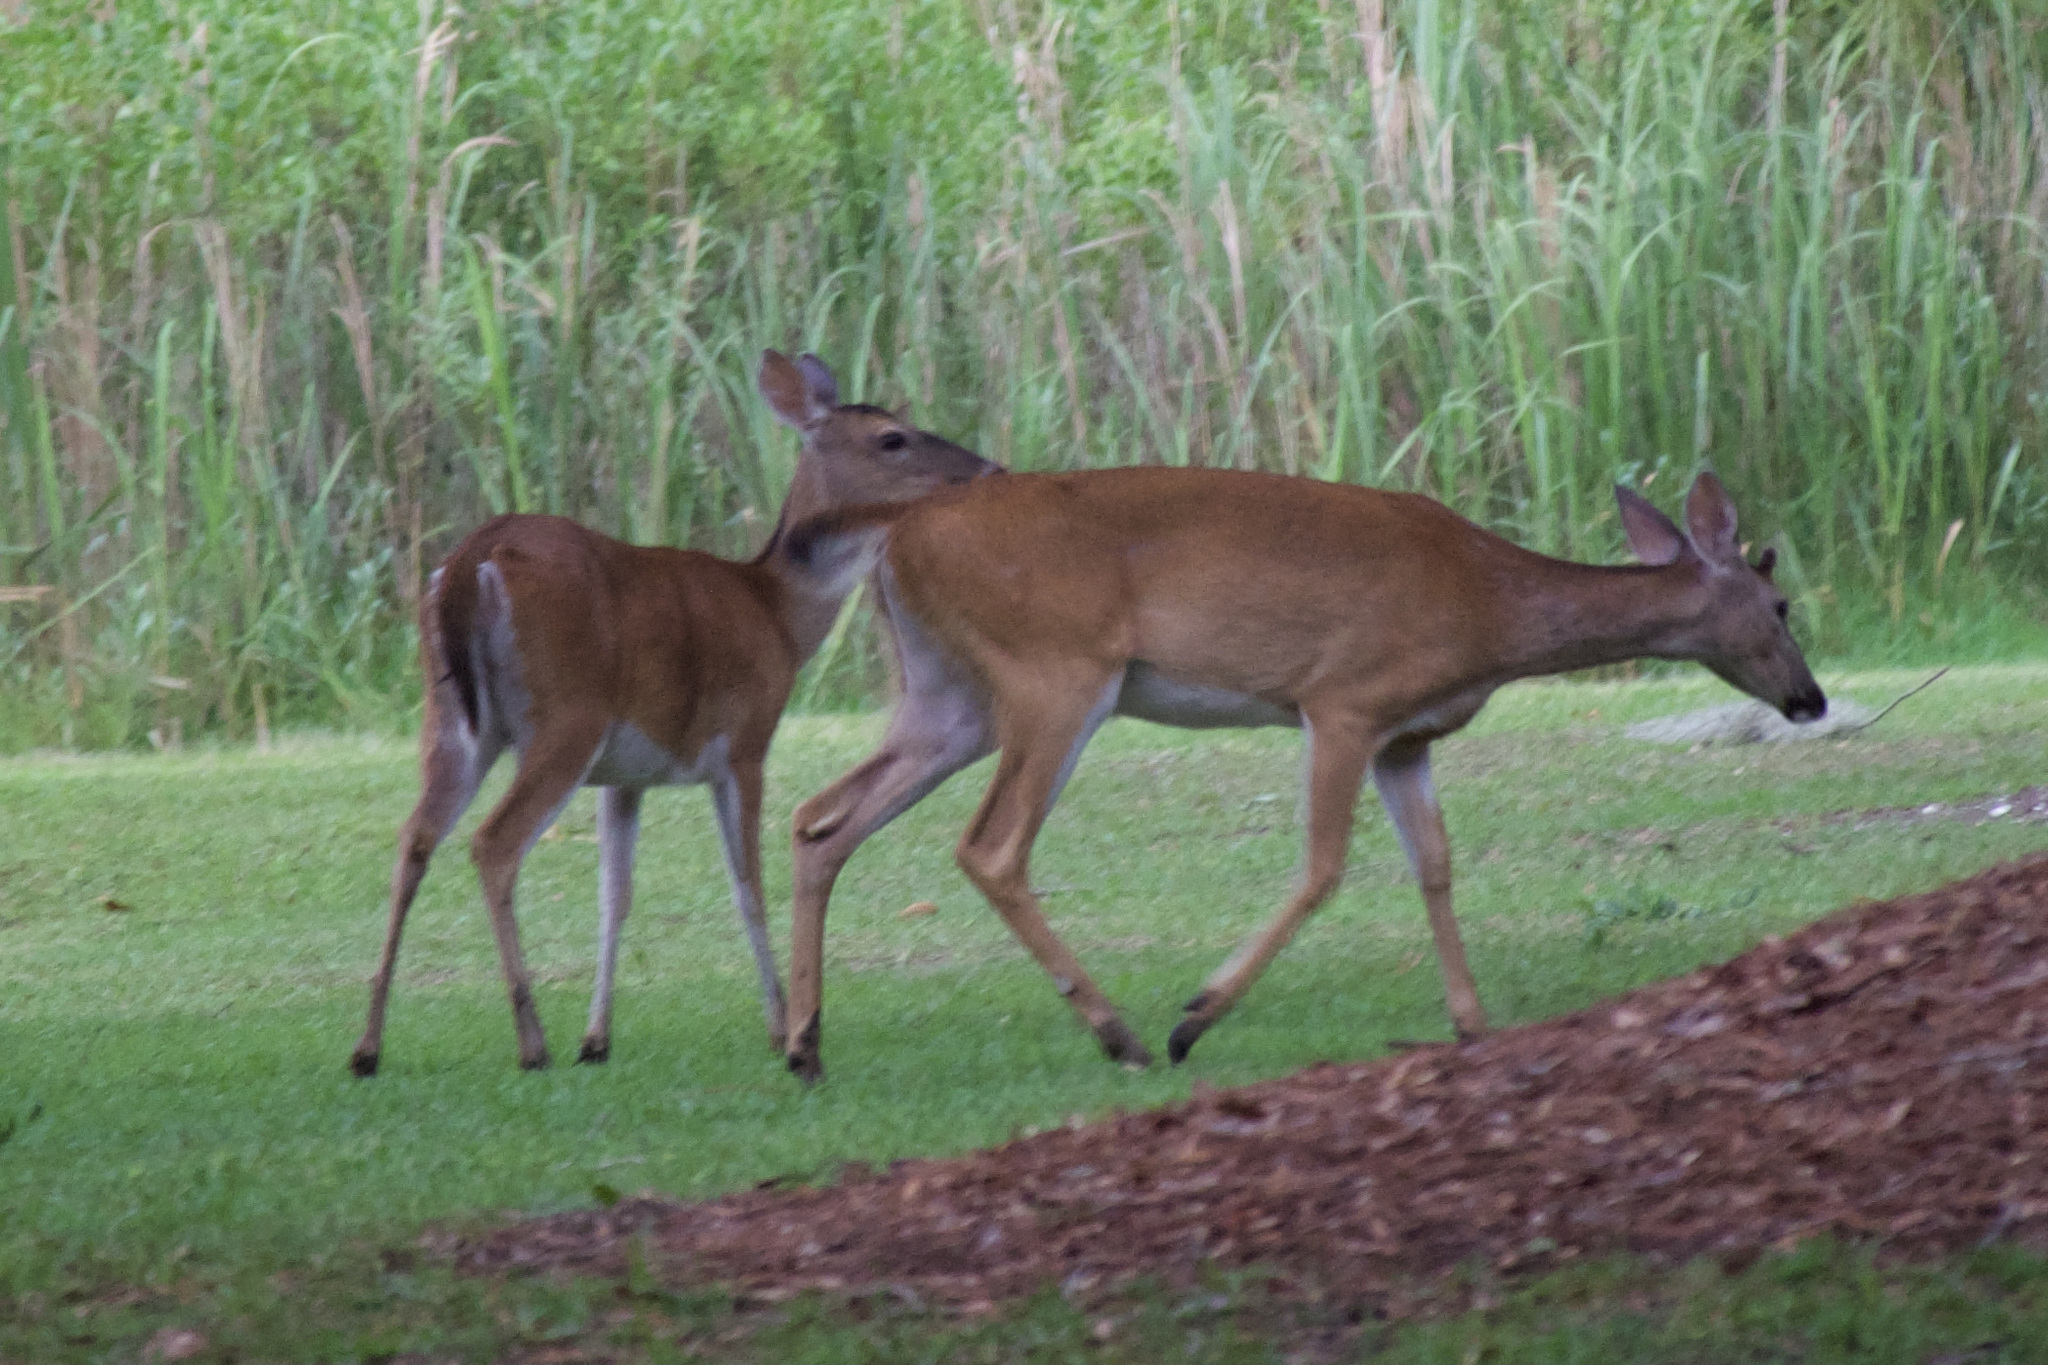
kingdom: Animalia
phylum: Chordata
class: Mammalia
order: Artiodactyla
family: Cervidae
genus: Odocoileus
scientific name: Odocoileus virginianus
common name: White-tailed deer
